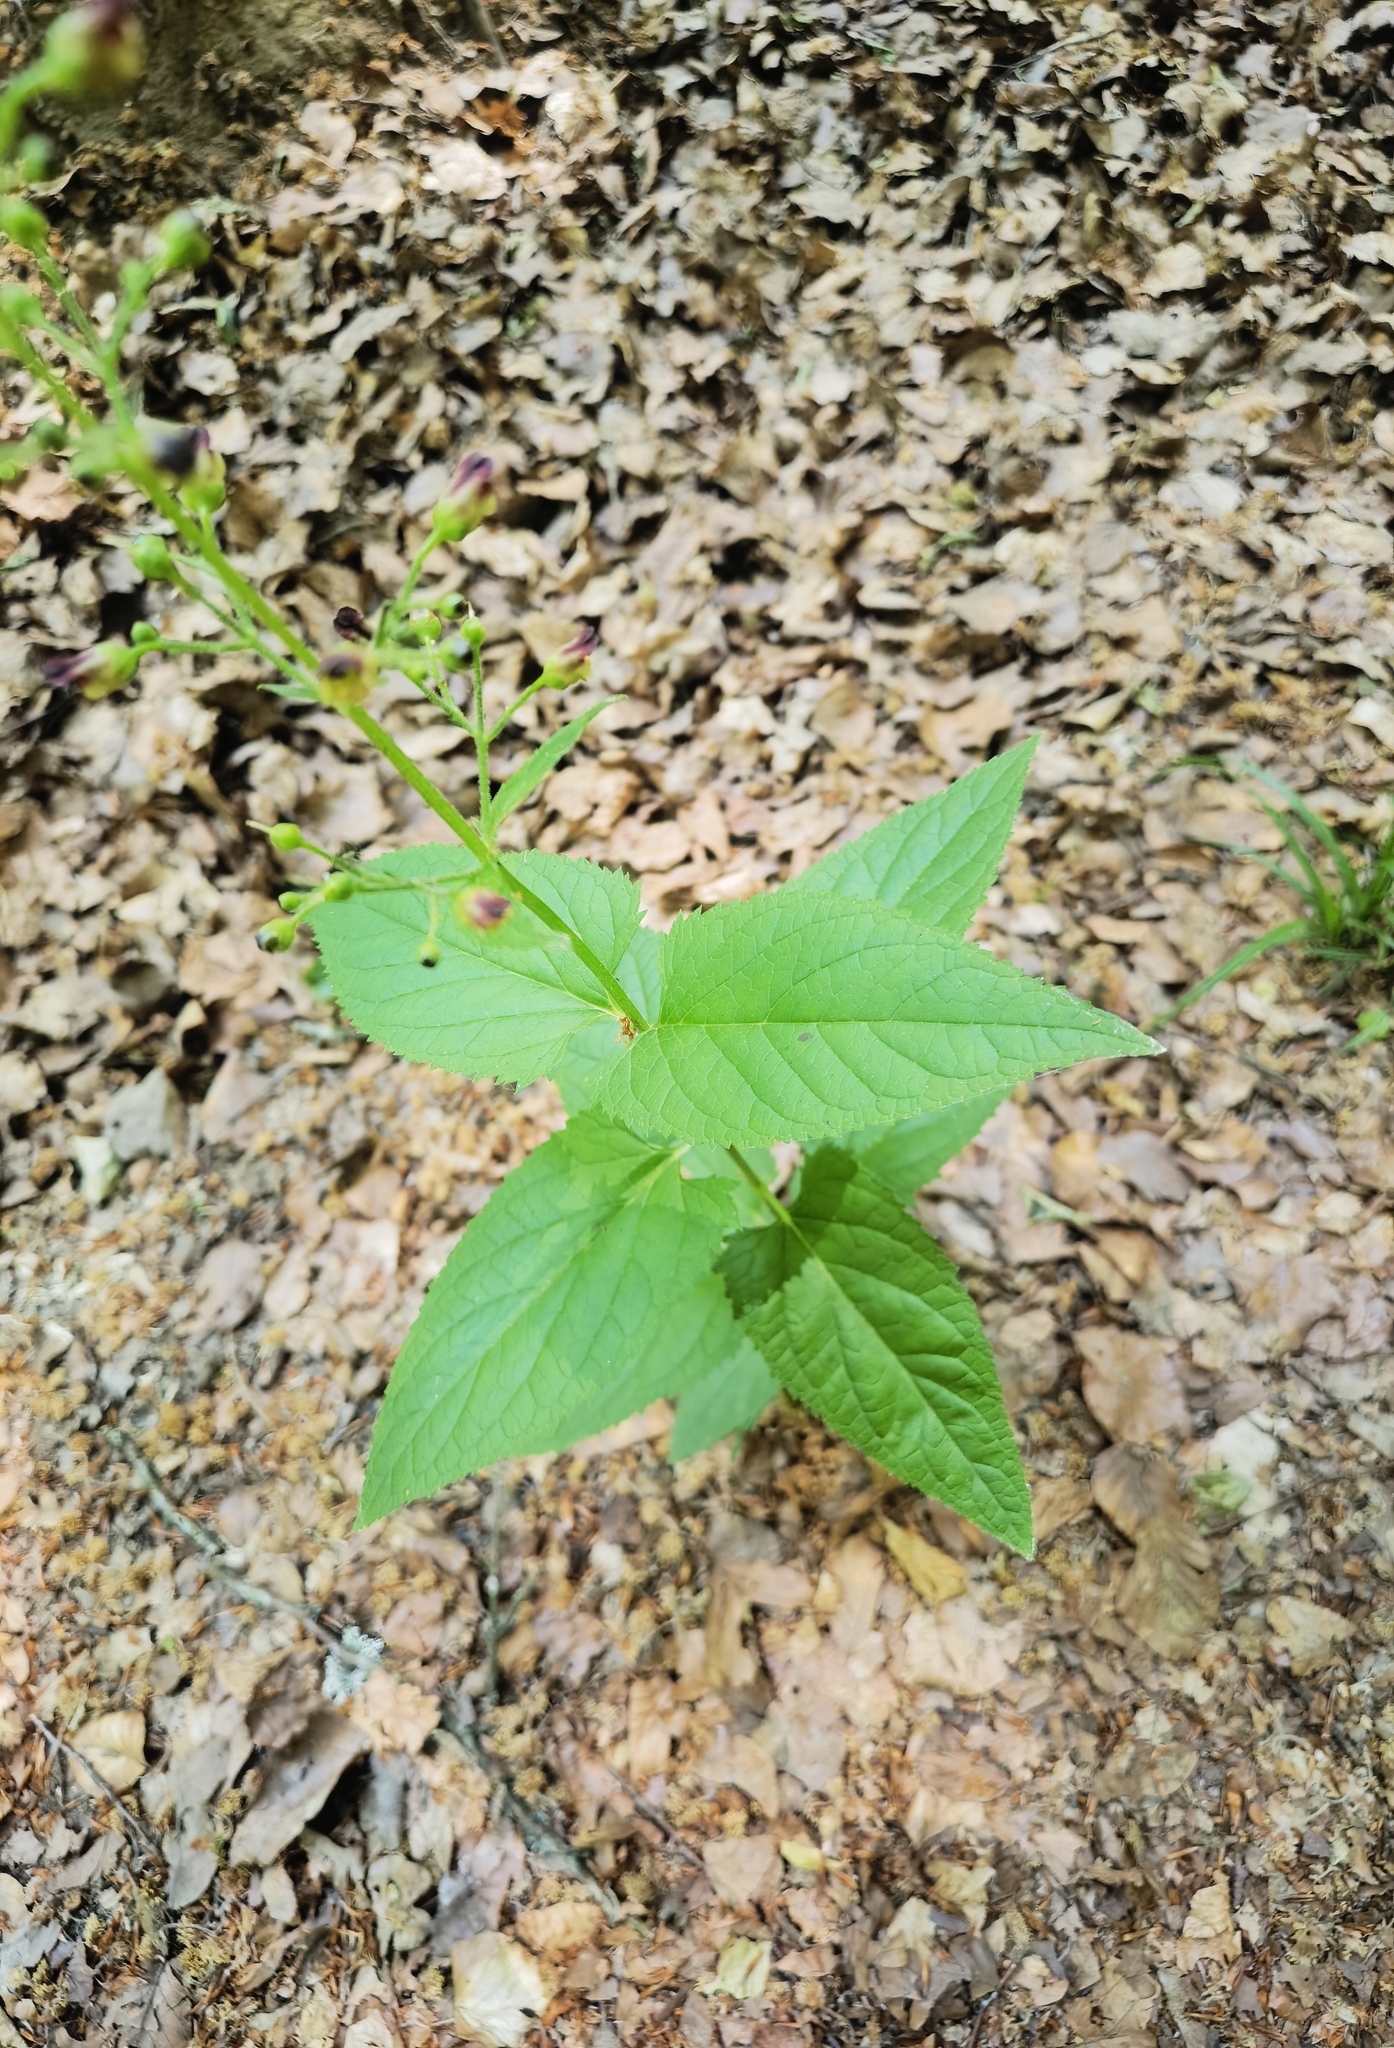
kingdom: Plantae
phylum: Tracheophyta
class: Magnoliopsida
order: Lamiales
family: Scrophulariaceae
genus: Scrophularia
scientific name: Scrophularia nodosa
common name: Common figwort
